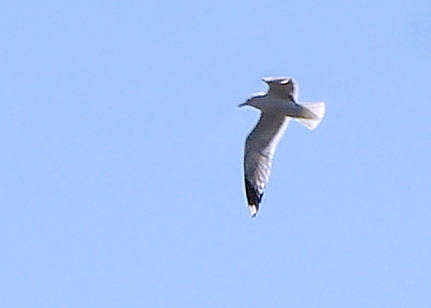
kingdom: Animalia
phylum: Chordata
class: Aves
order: Charadriiformes
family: Laridae
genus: Larus
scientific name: Larus canus
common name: Mew gull
